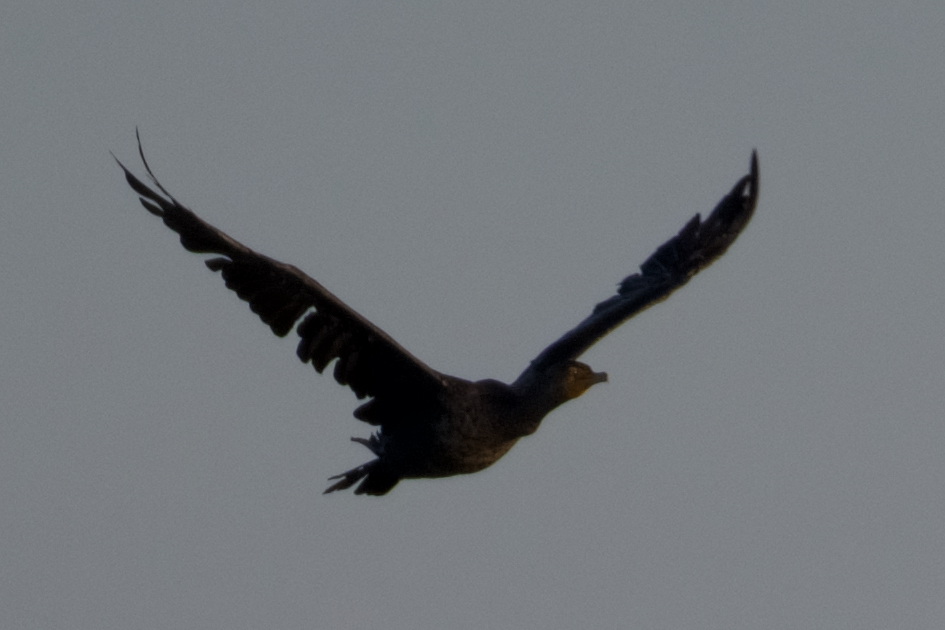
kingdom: Animalia
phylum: Chordata
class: Aves
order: Suliformes
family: Phalacrocoracidae
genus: Phalacrocorax
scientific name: Phalacrocorax auritus
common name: Double-crested cormorant
